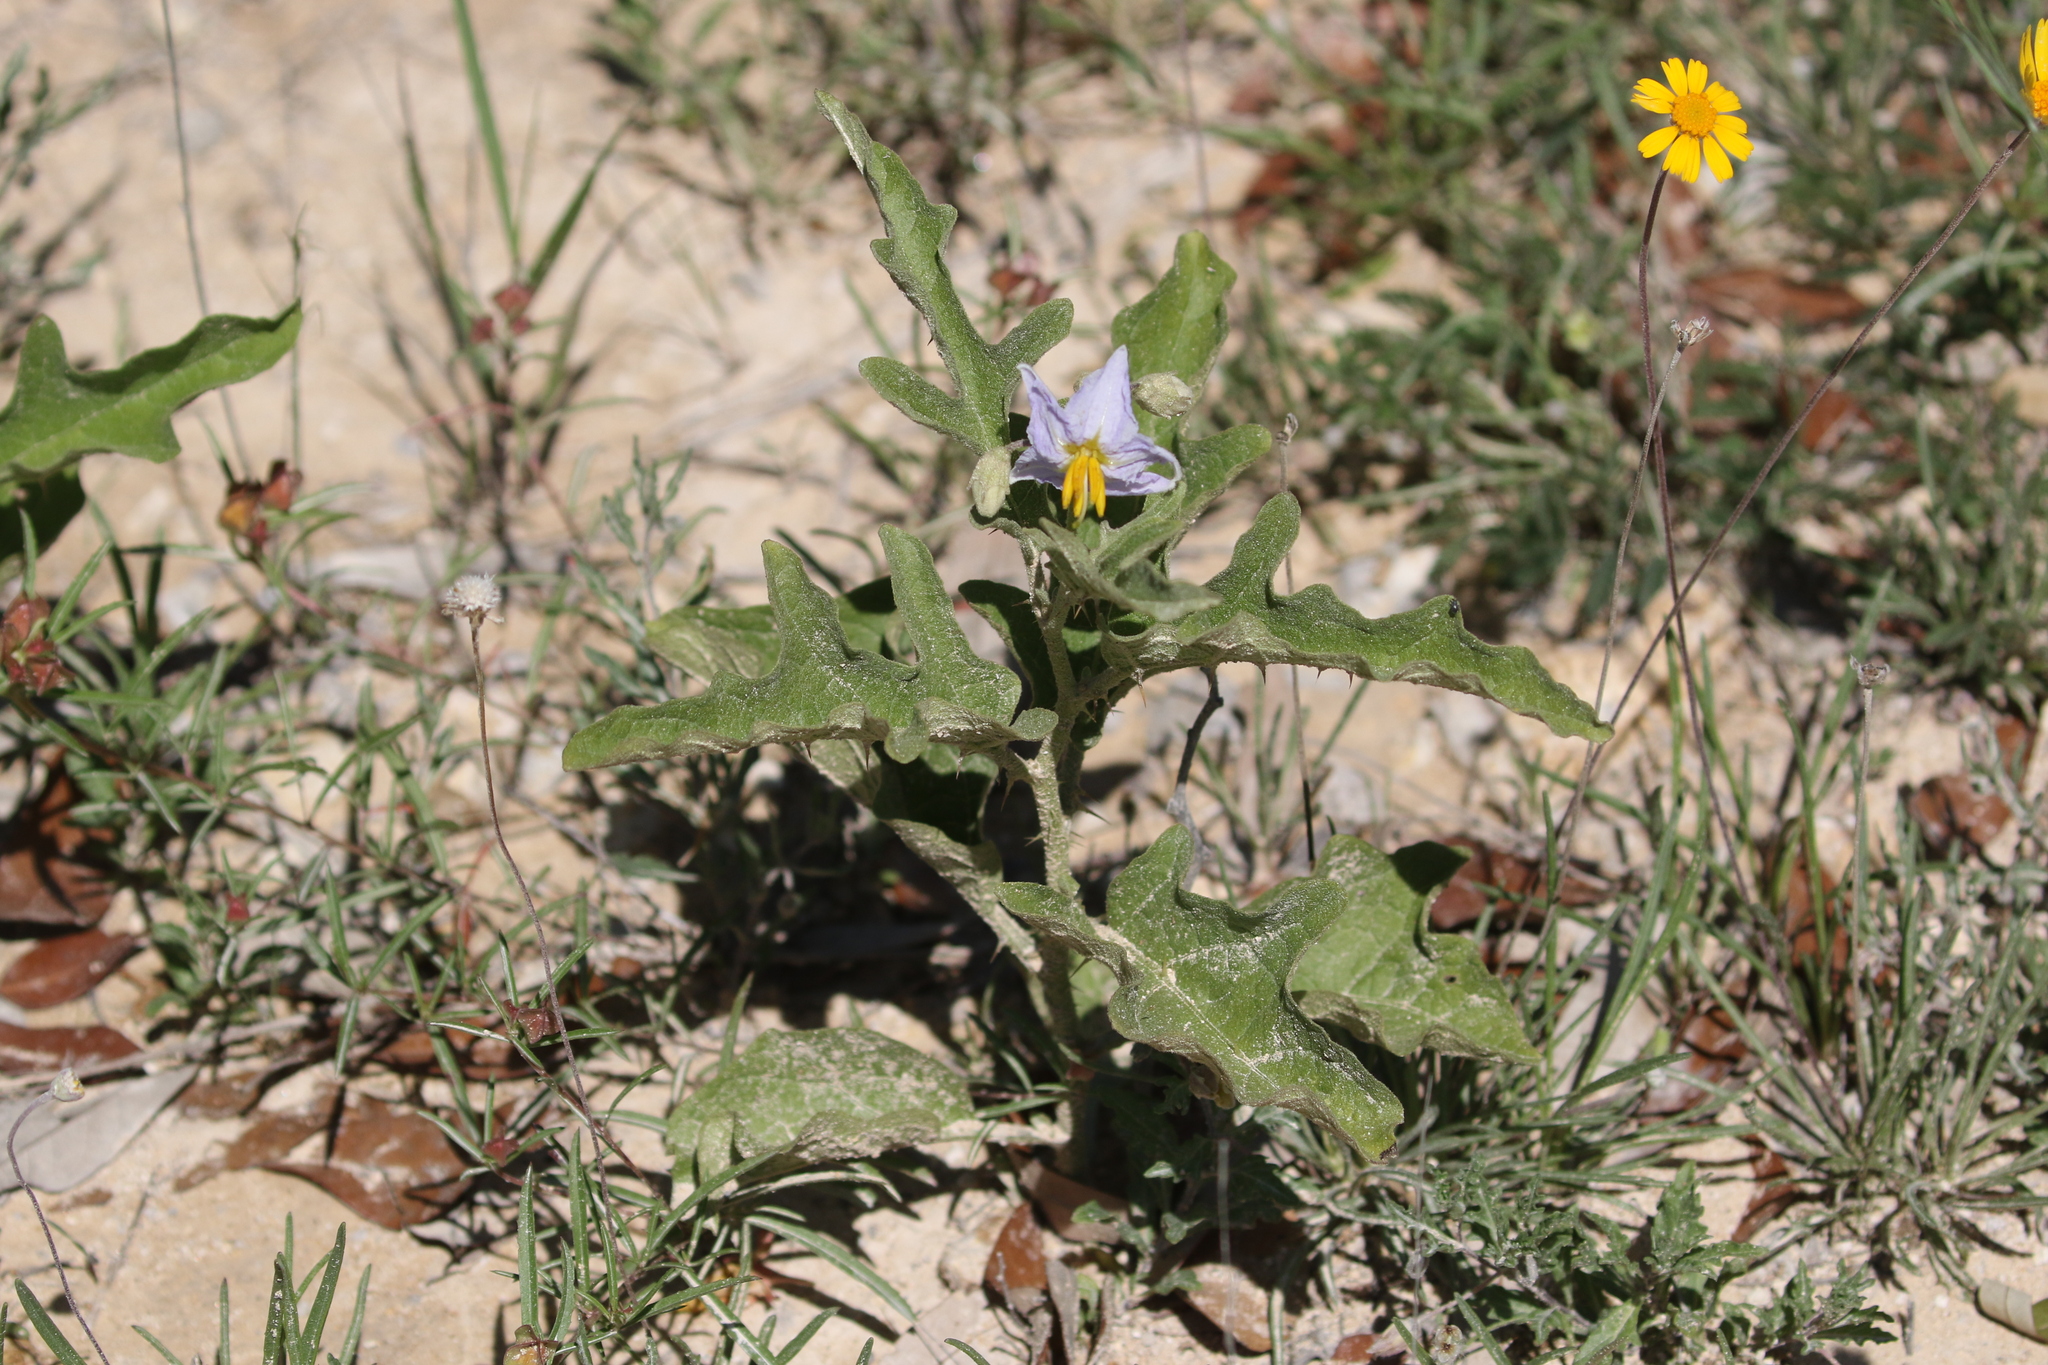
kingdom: Plantae
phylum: Tracheophyta
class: Magnoliopsida
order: Solanales
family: Solanaceae
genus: Solanum
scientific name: Solanum dimidiatum
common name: Carolina horse-nettle
